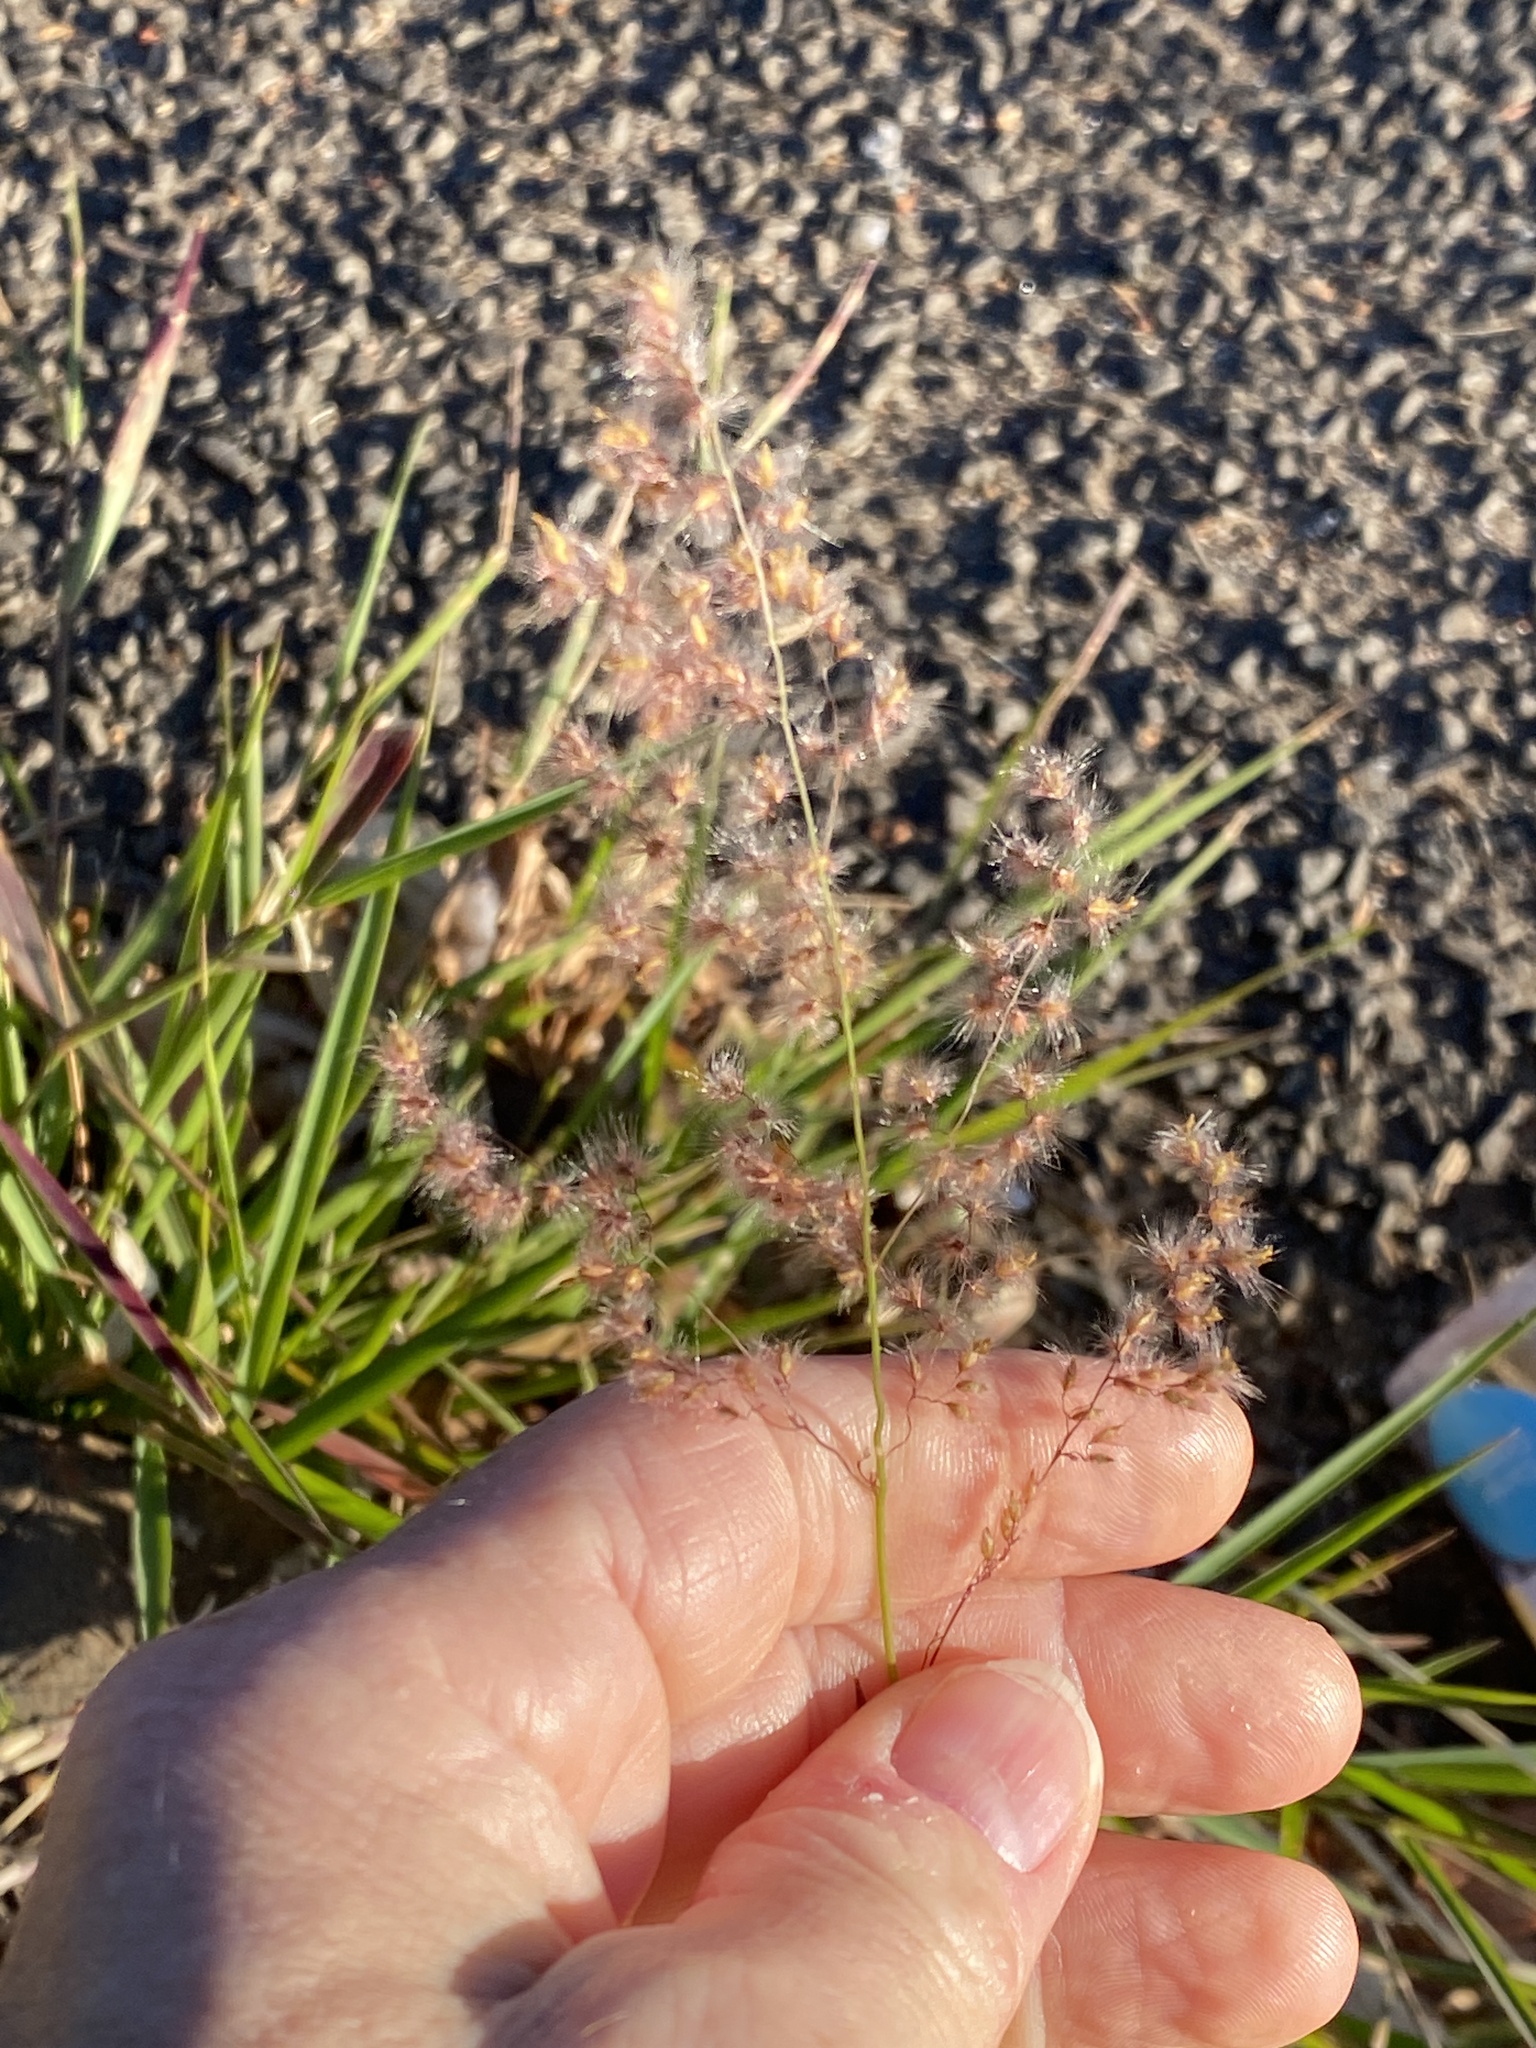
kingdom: Plantae
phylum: Tracheophyta
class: Liliopsida
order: Poales
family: Poaceae
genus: Melinis
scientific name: Melinis repens
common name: Rose natal grass
